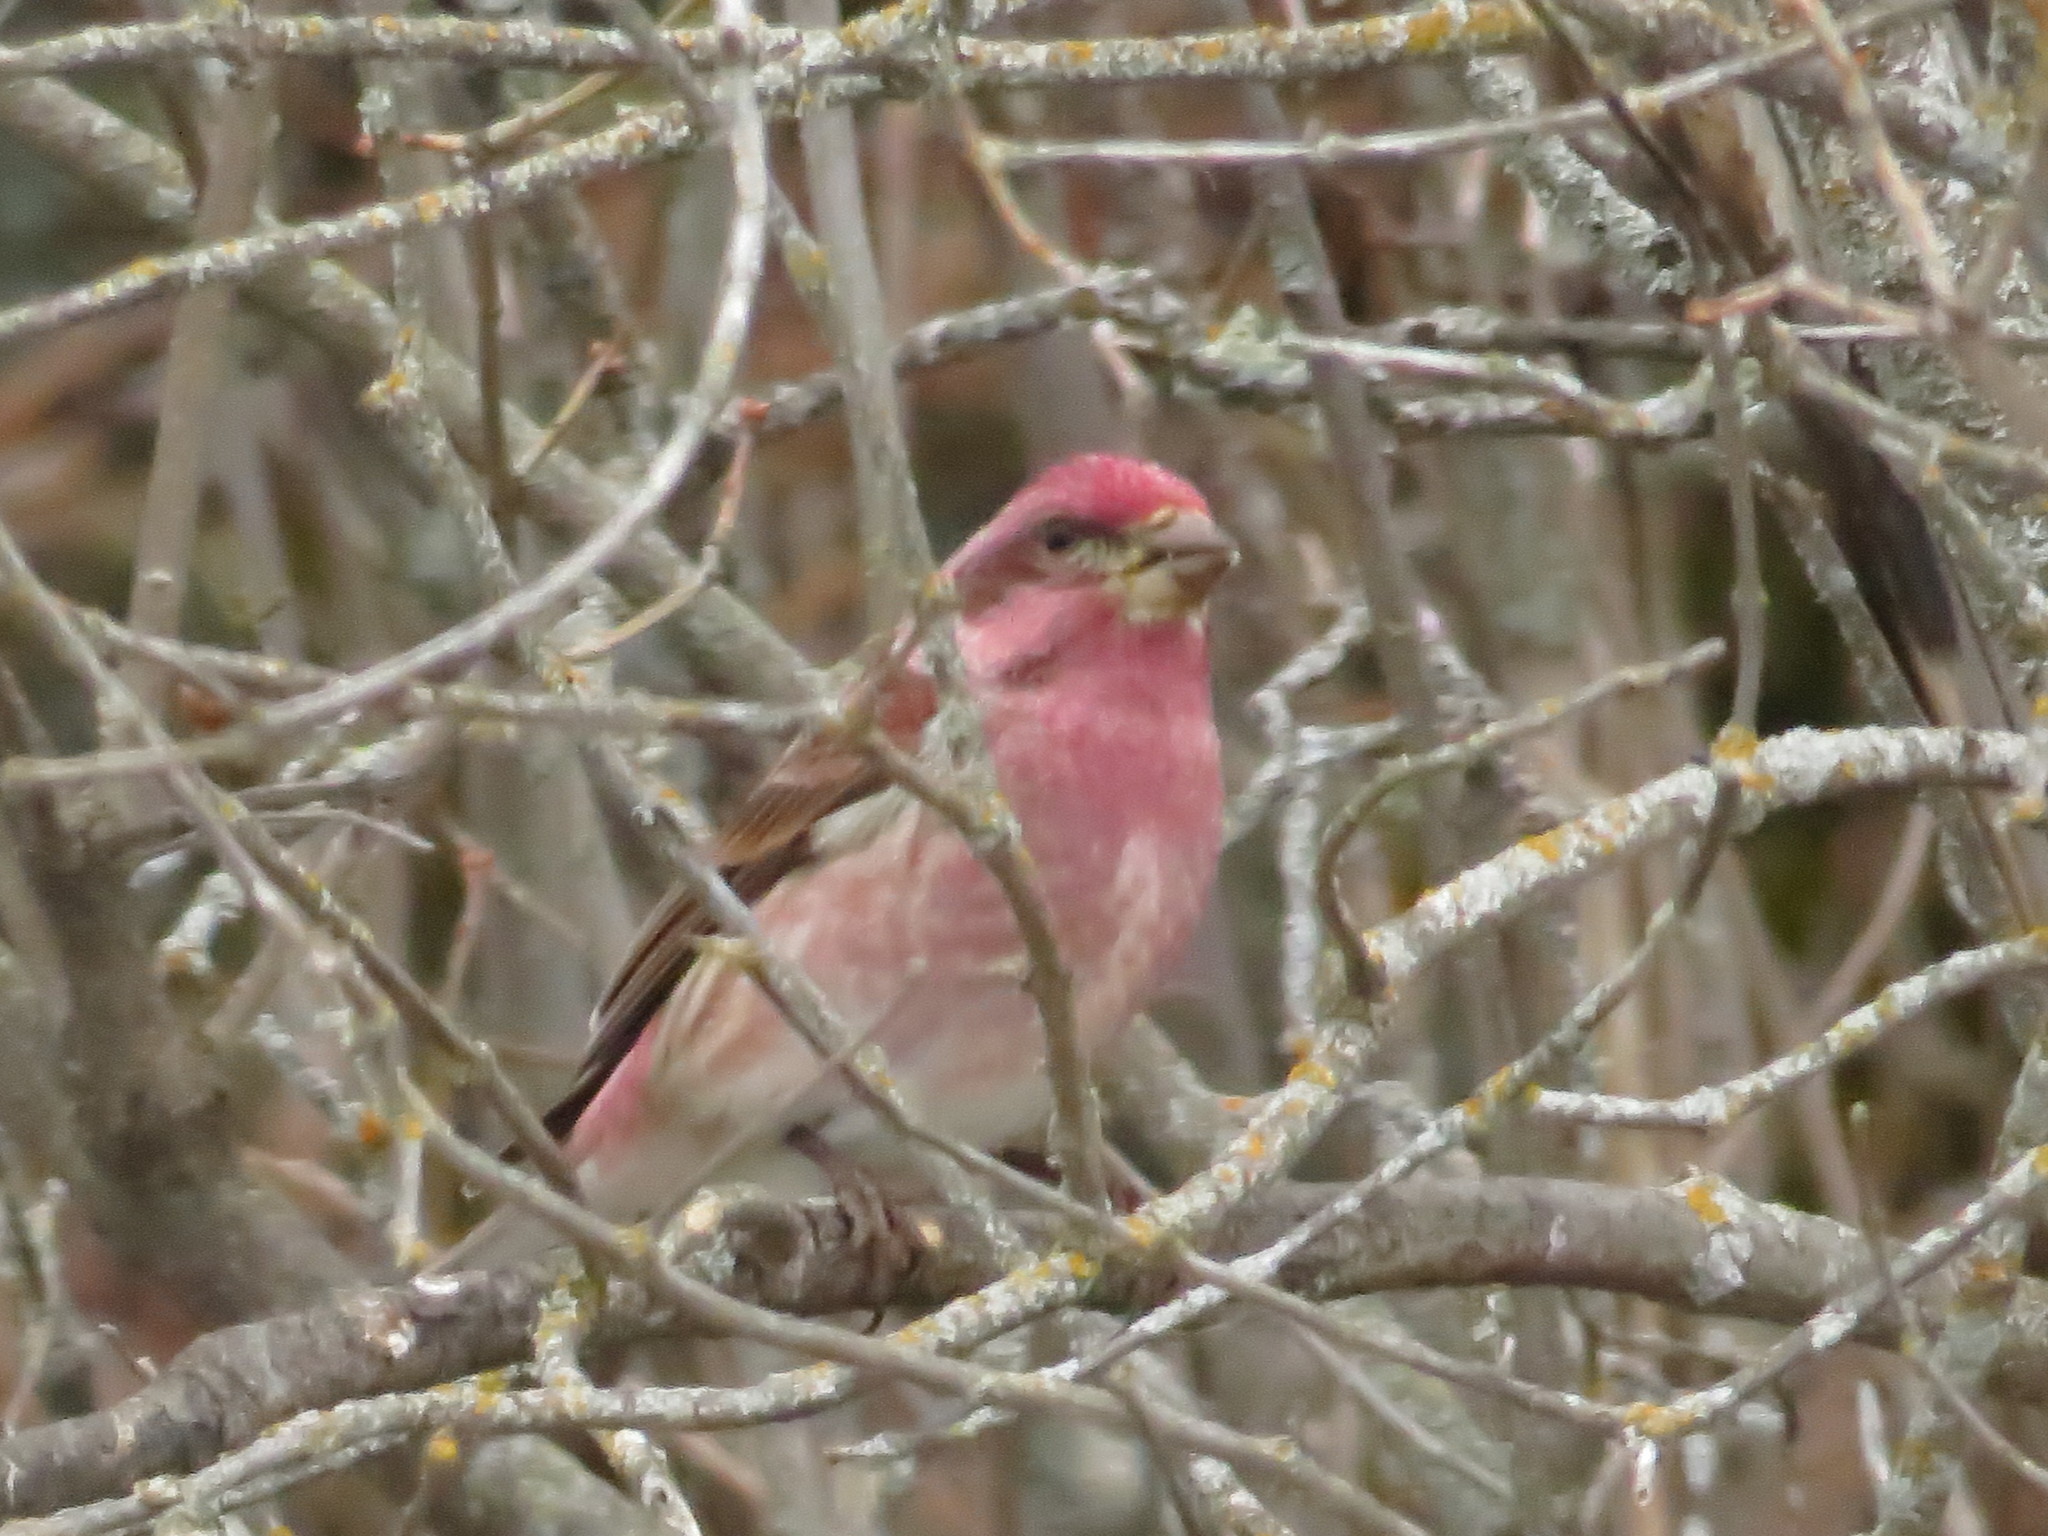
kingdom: Animalia
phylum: Chordata
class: Aves
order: Passeriformes
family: Fringillidae
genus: Haemorhous
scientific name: Haemorhous purpureus
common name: Purple finch
